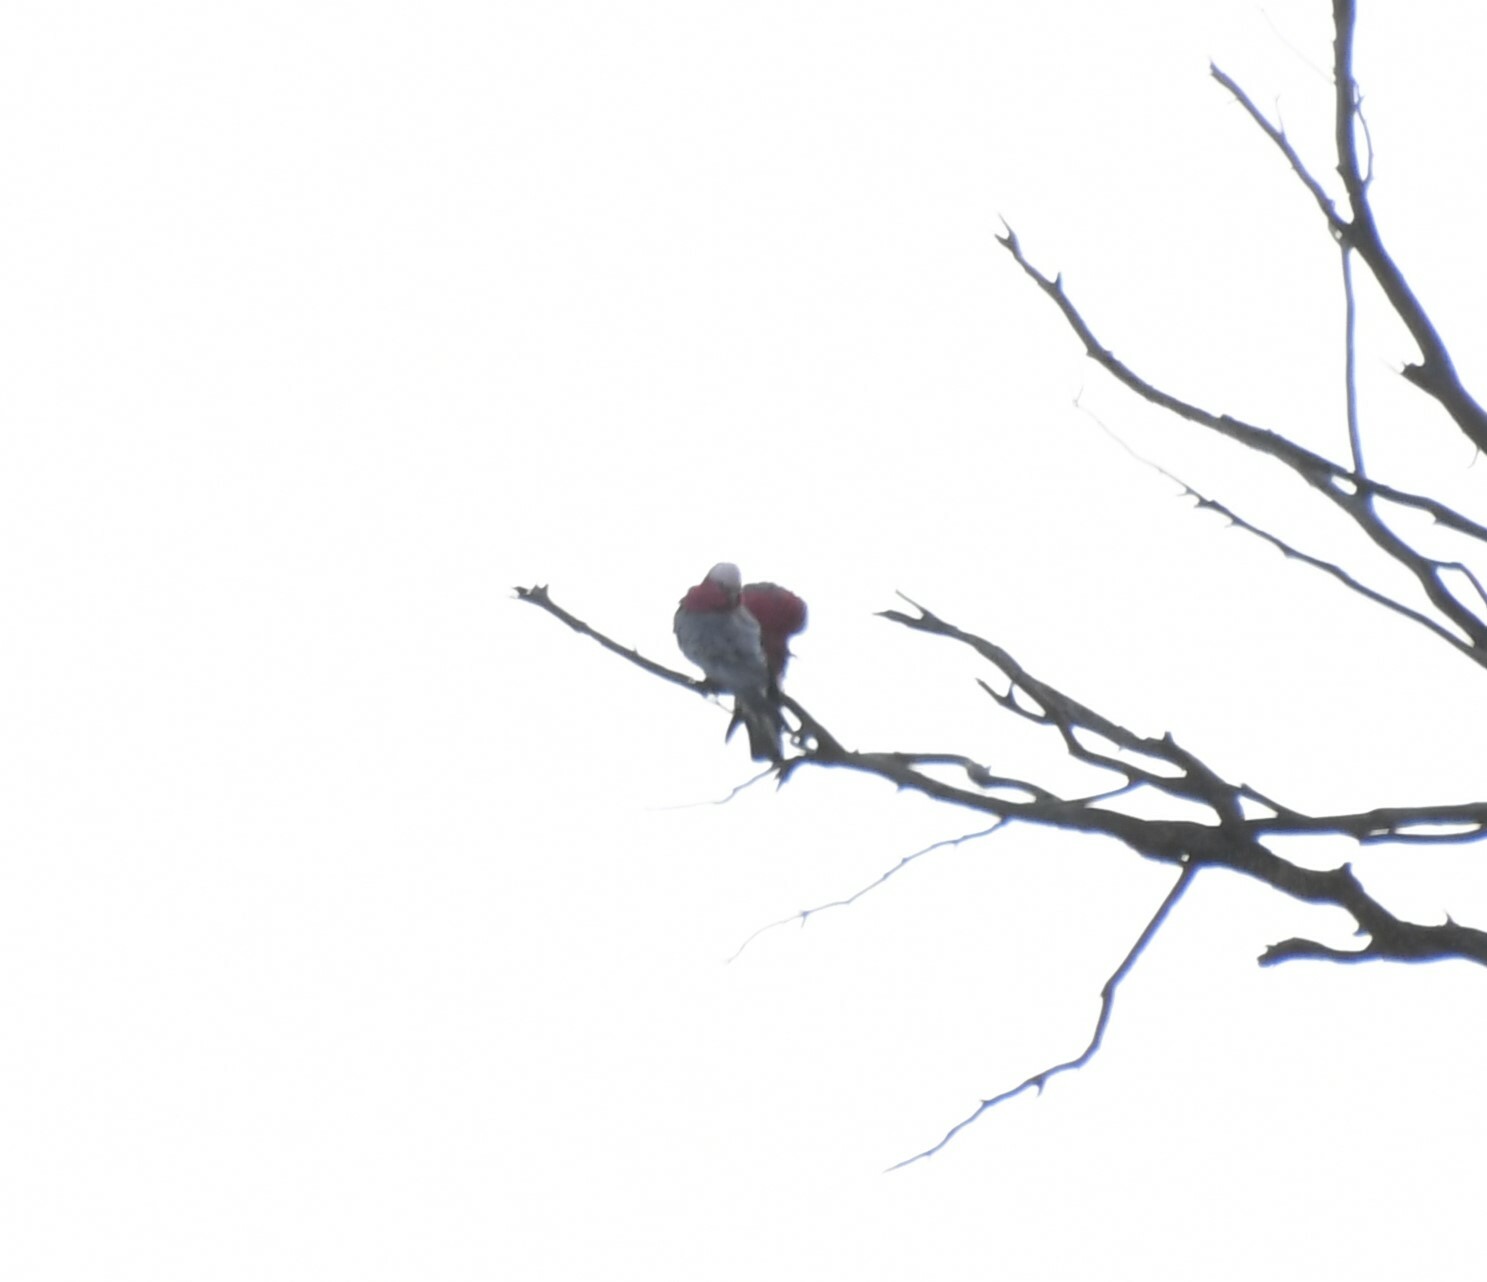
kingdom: Animalia
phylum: Chordata
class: Aves
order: Psittaciformes
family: Psittacidae
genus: Eolophus
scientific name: Eolophus roseicapilla
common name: Galah
